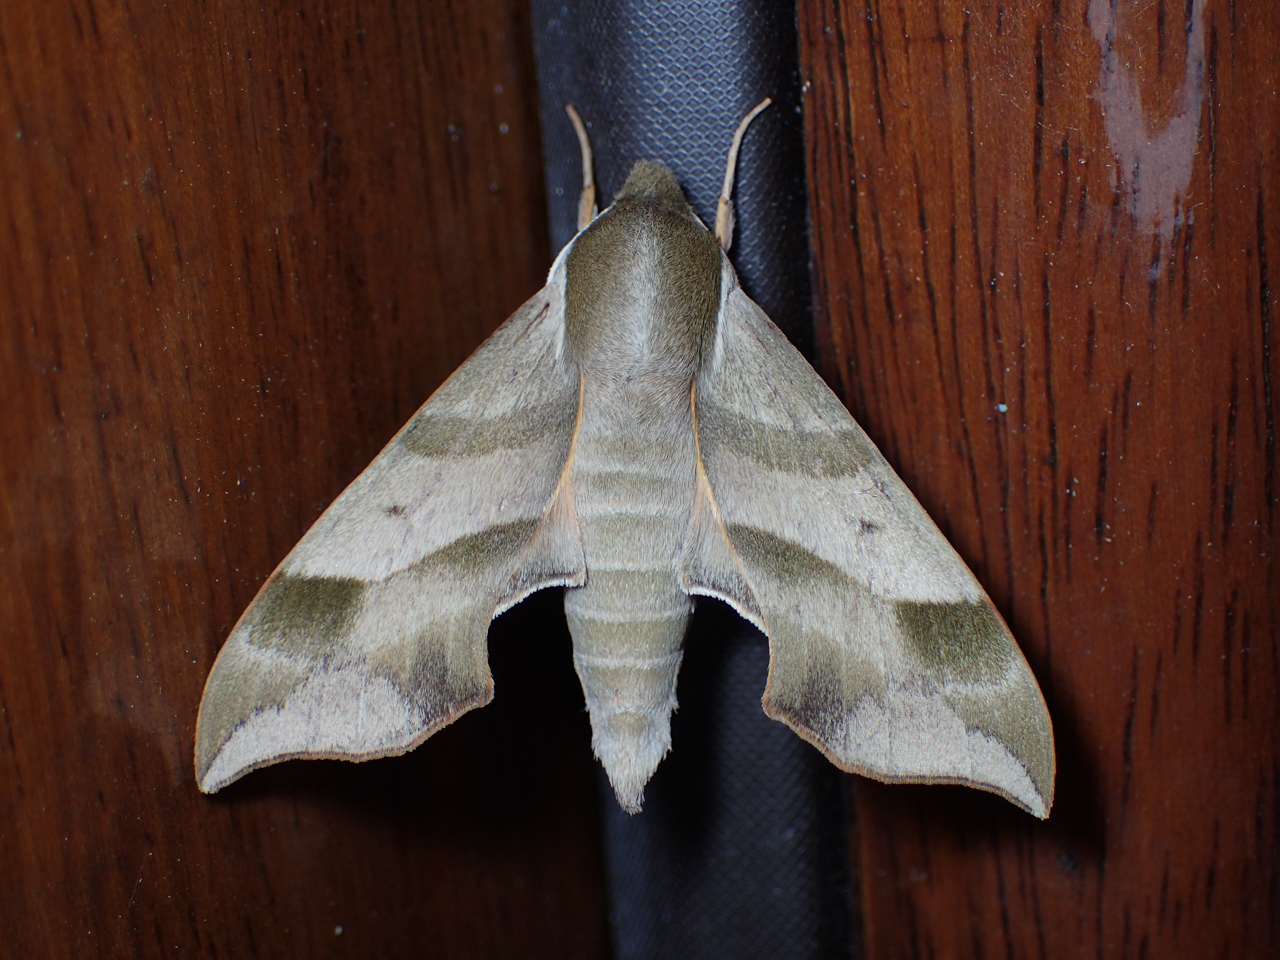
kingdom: Animalia
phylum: Arthropoda
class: Insecta
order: Lepidoptera
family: Sphingidae
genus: Darapsa
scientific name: Darapsa myron
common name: Hog sphinx
